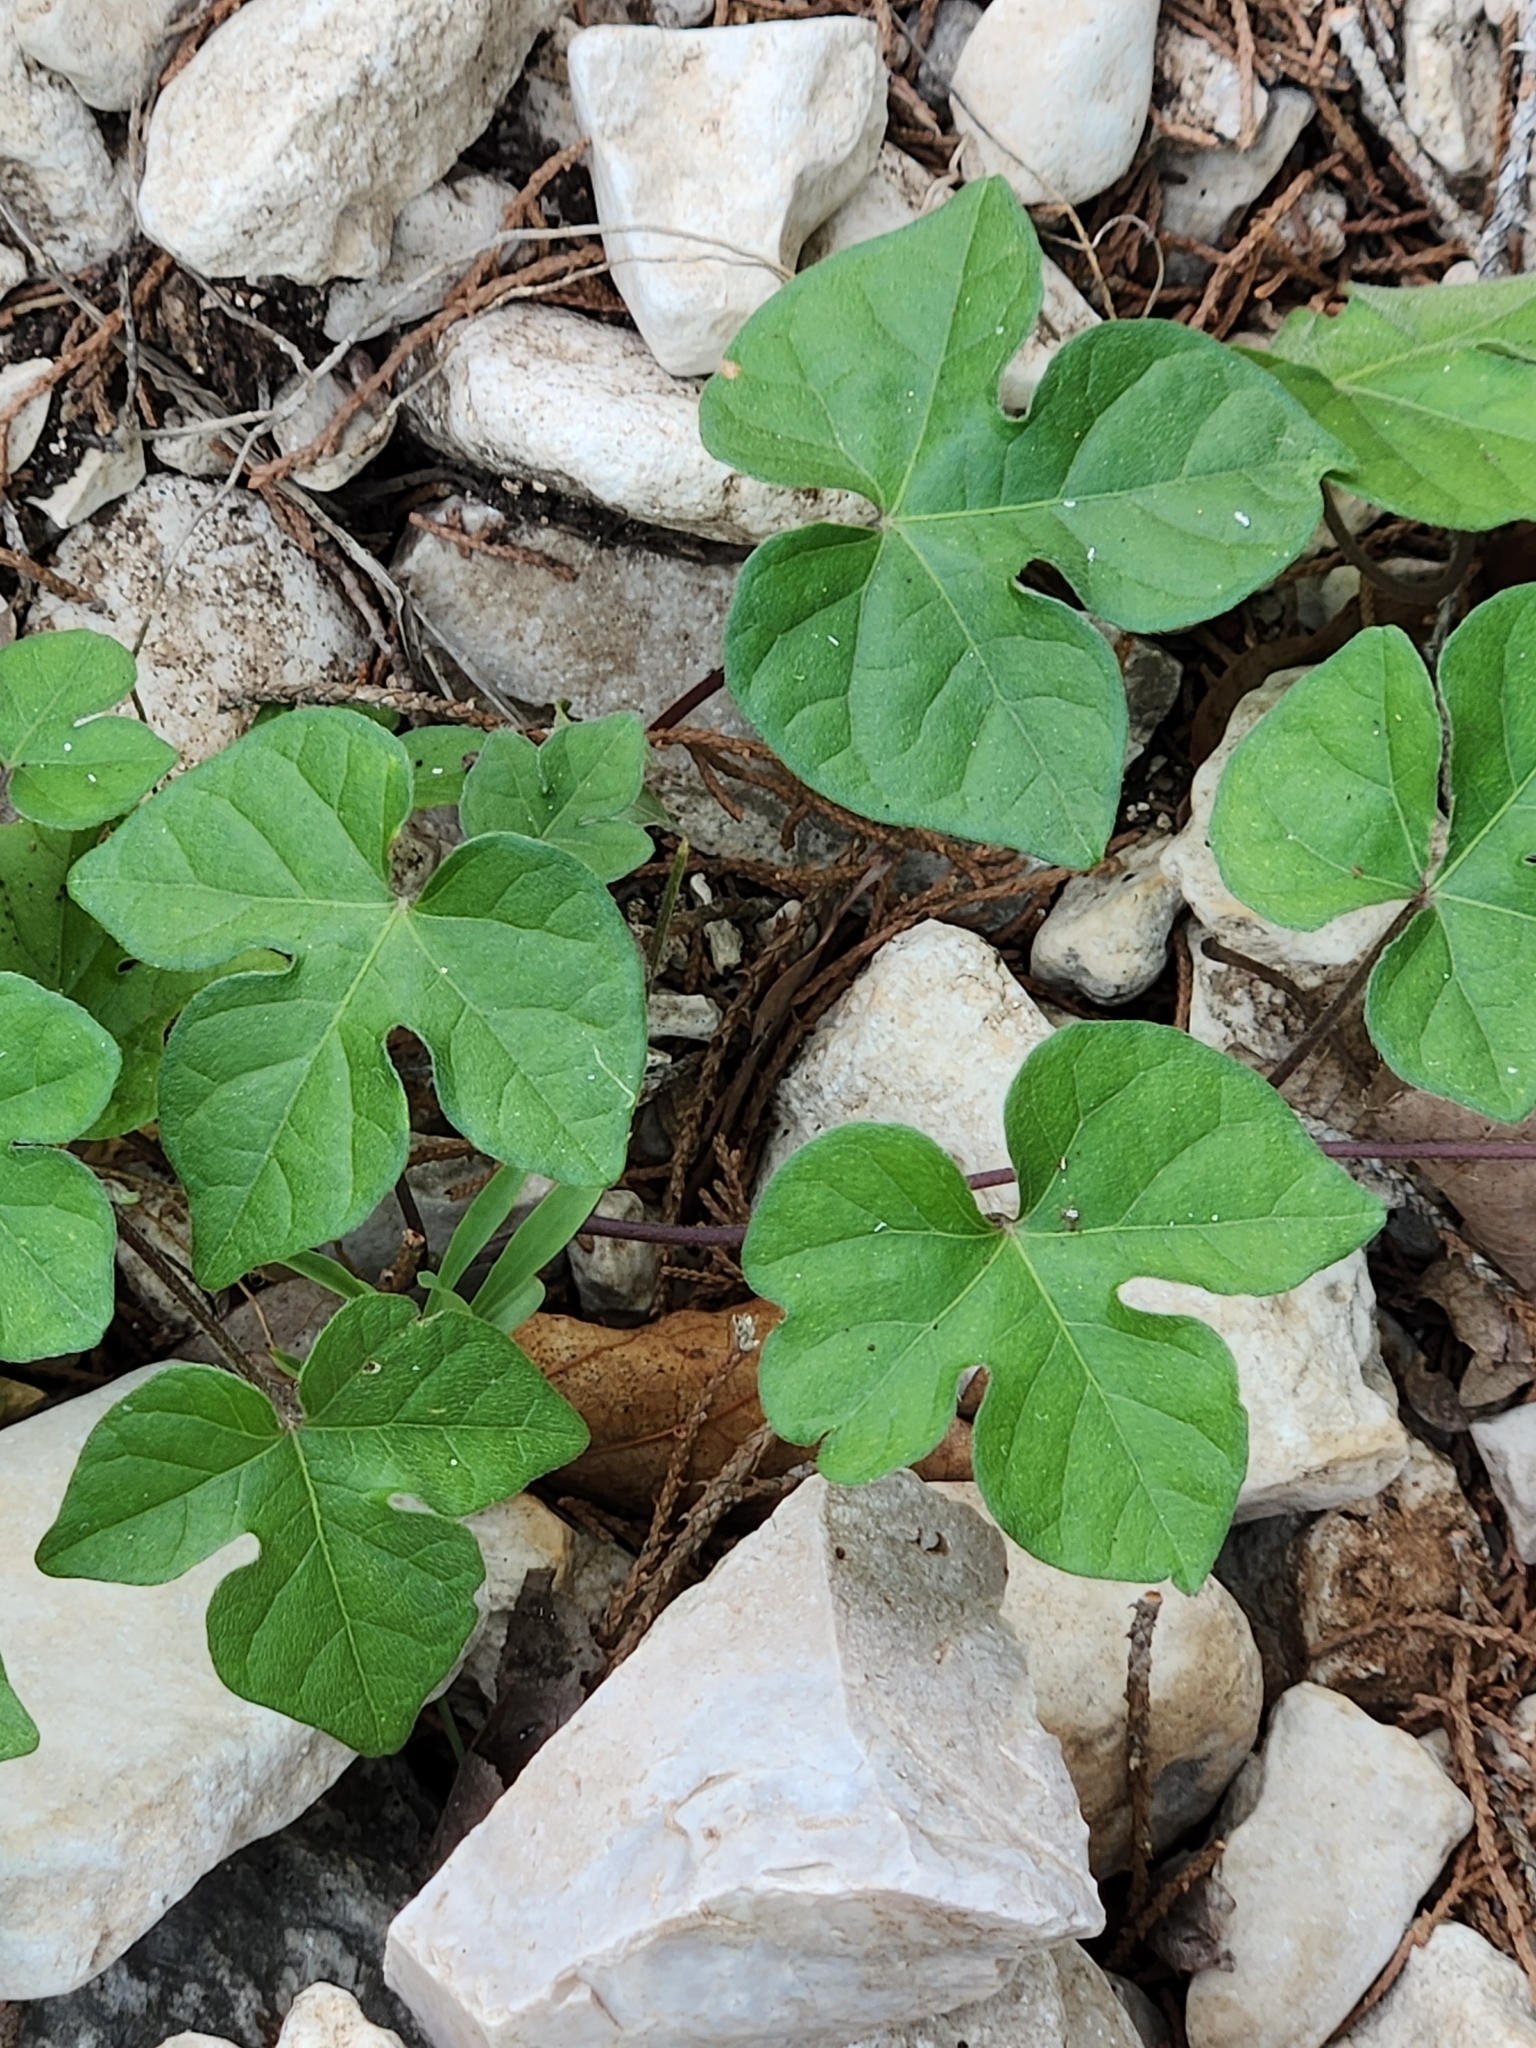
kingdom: Plantae
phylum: Tracheophyta
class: Magnoliopsida
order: Solanales
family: Convolvulaceae
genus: Ipomoea
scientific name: Ipomoea lindheimeri
